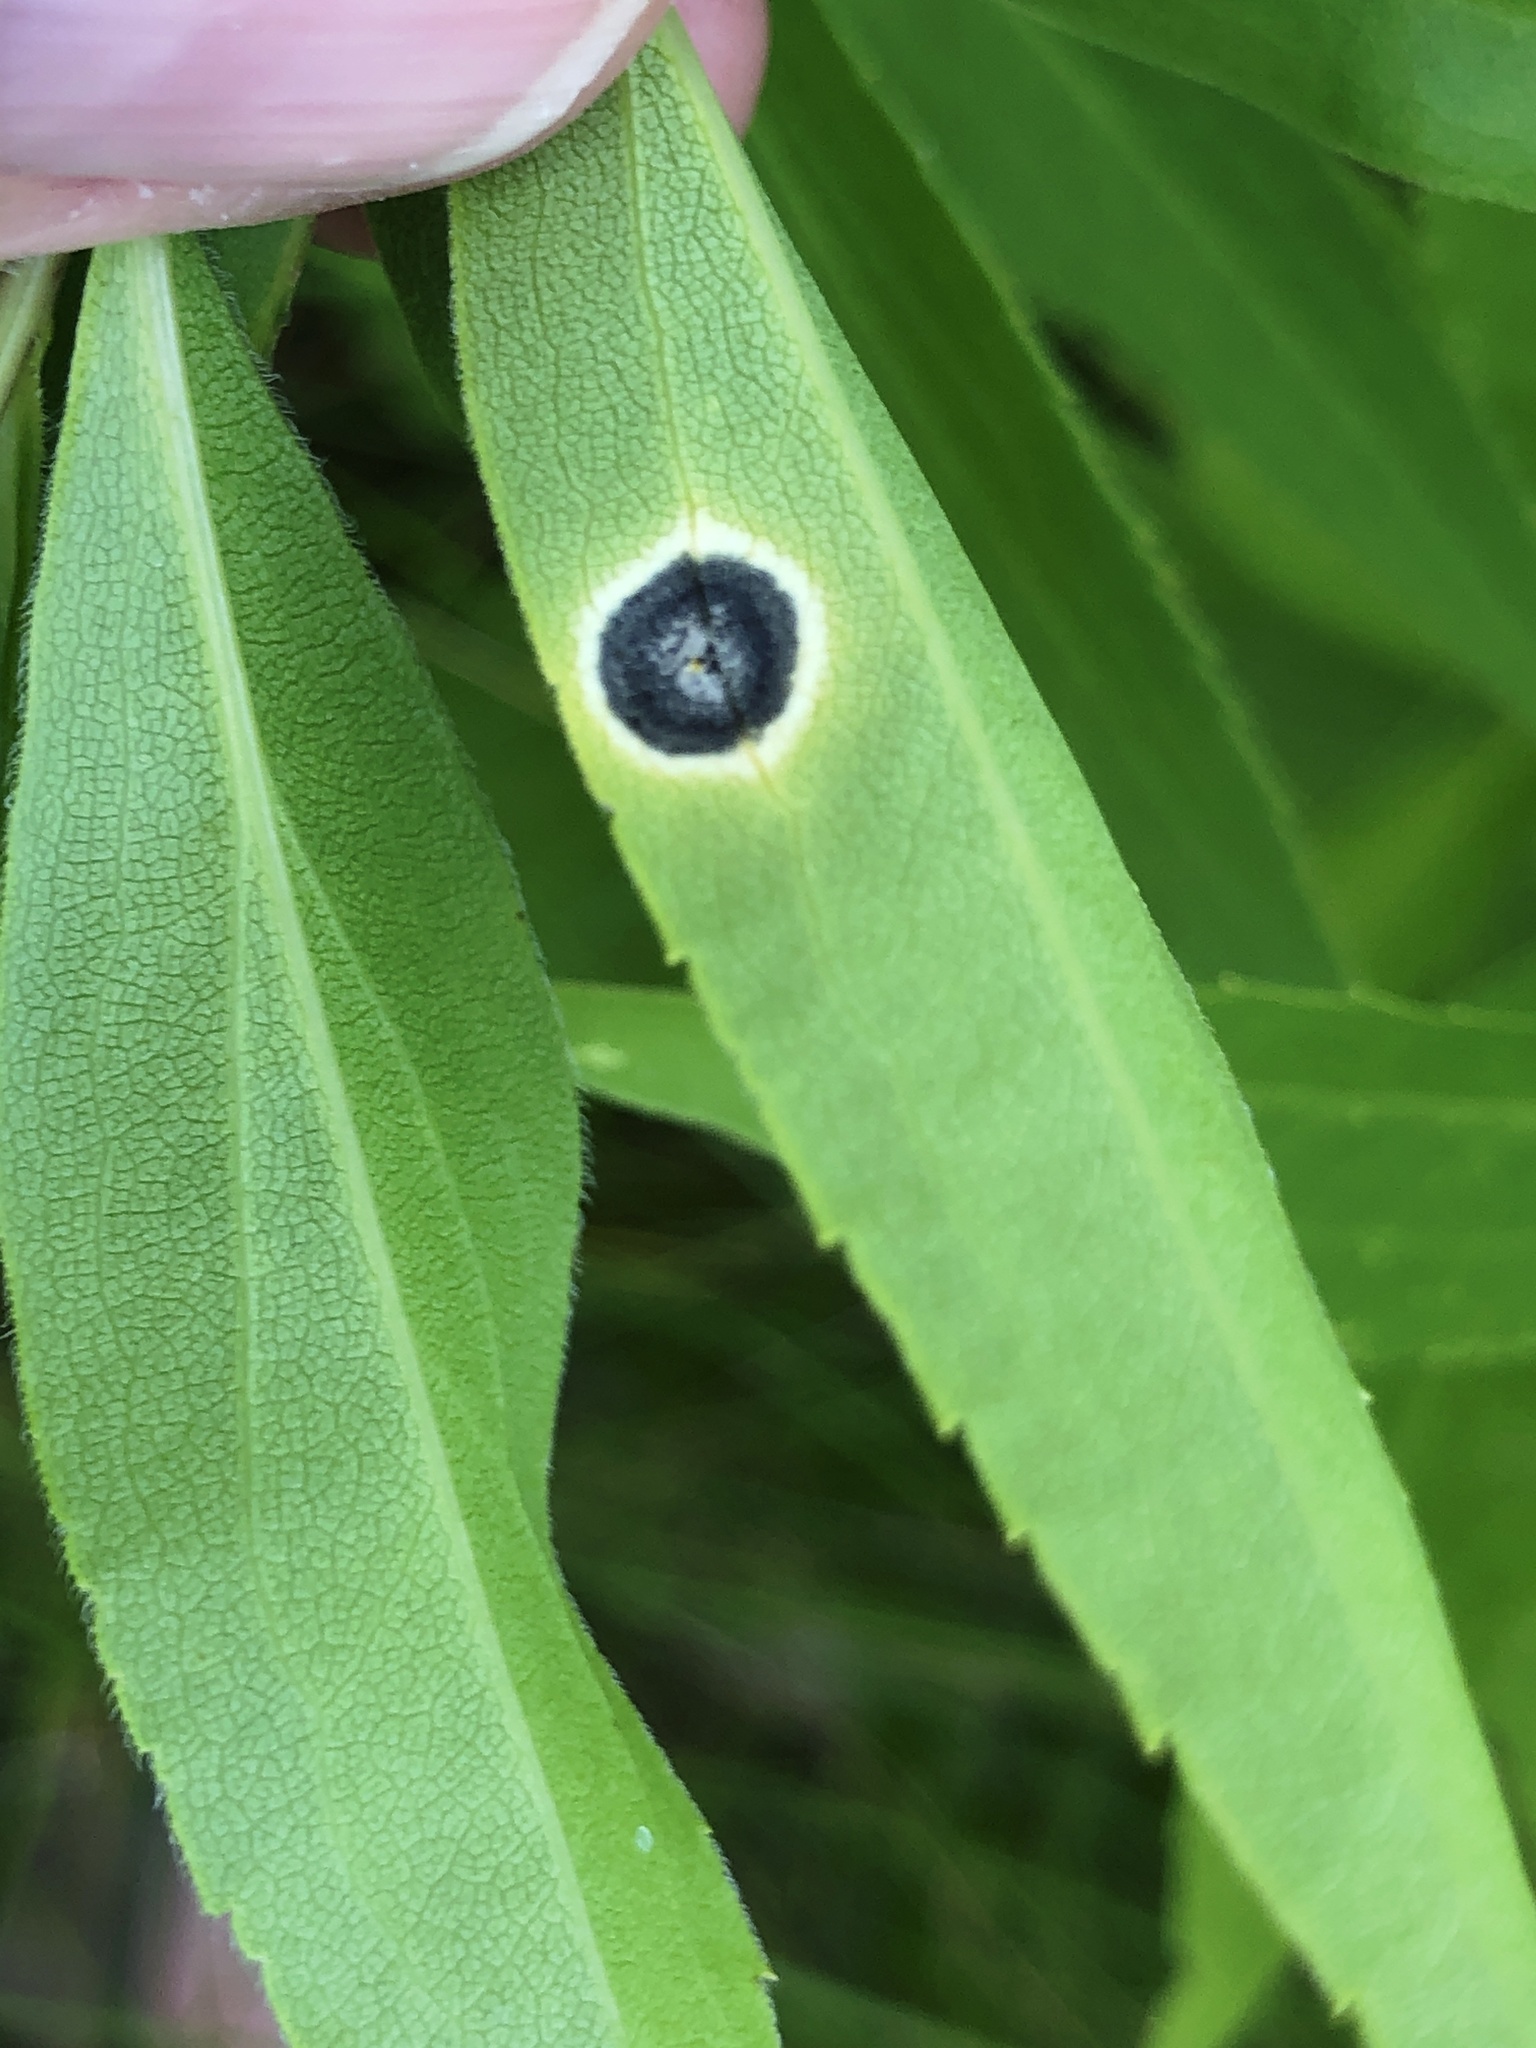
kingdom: Animalia
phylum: Arthropoda
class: Insecta
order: Diptera
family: Cecidomyiidae
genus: Asteromyia
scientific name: Asteromyia carbonifera
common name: Carbonifera goldenrod gall midge
